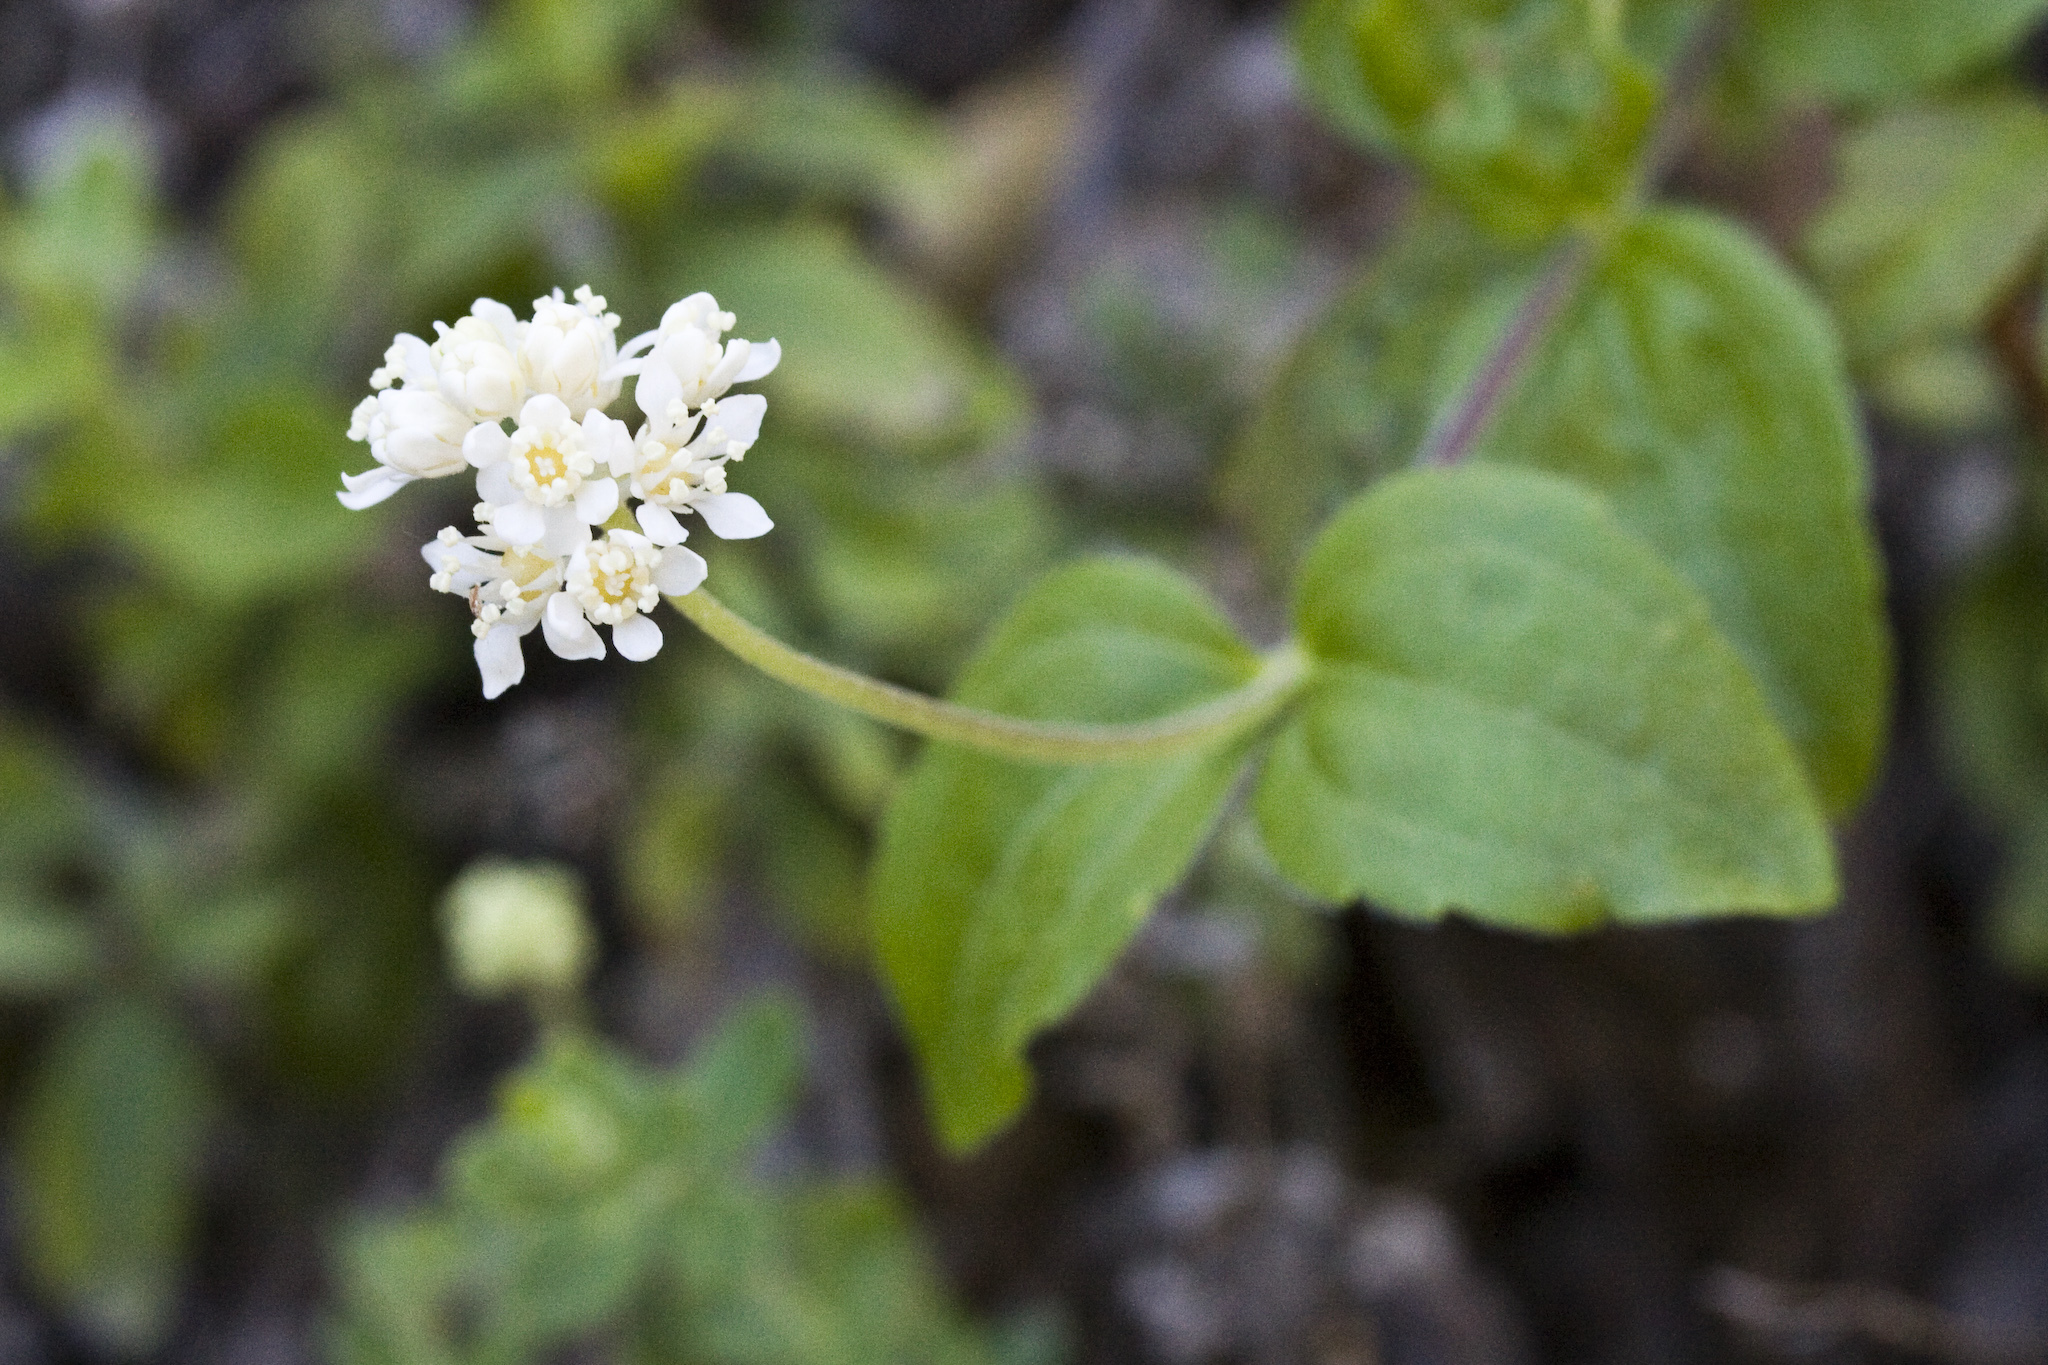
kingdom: Plantae
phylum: Tracheophyta
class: Magnoliopsida
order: Cornales
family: Hydrangeaceae
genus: Whipplea
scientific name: Whipplea modesta
